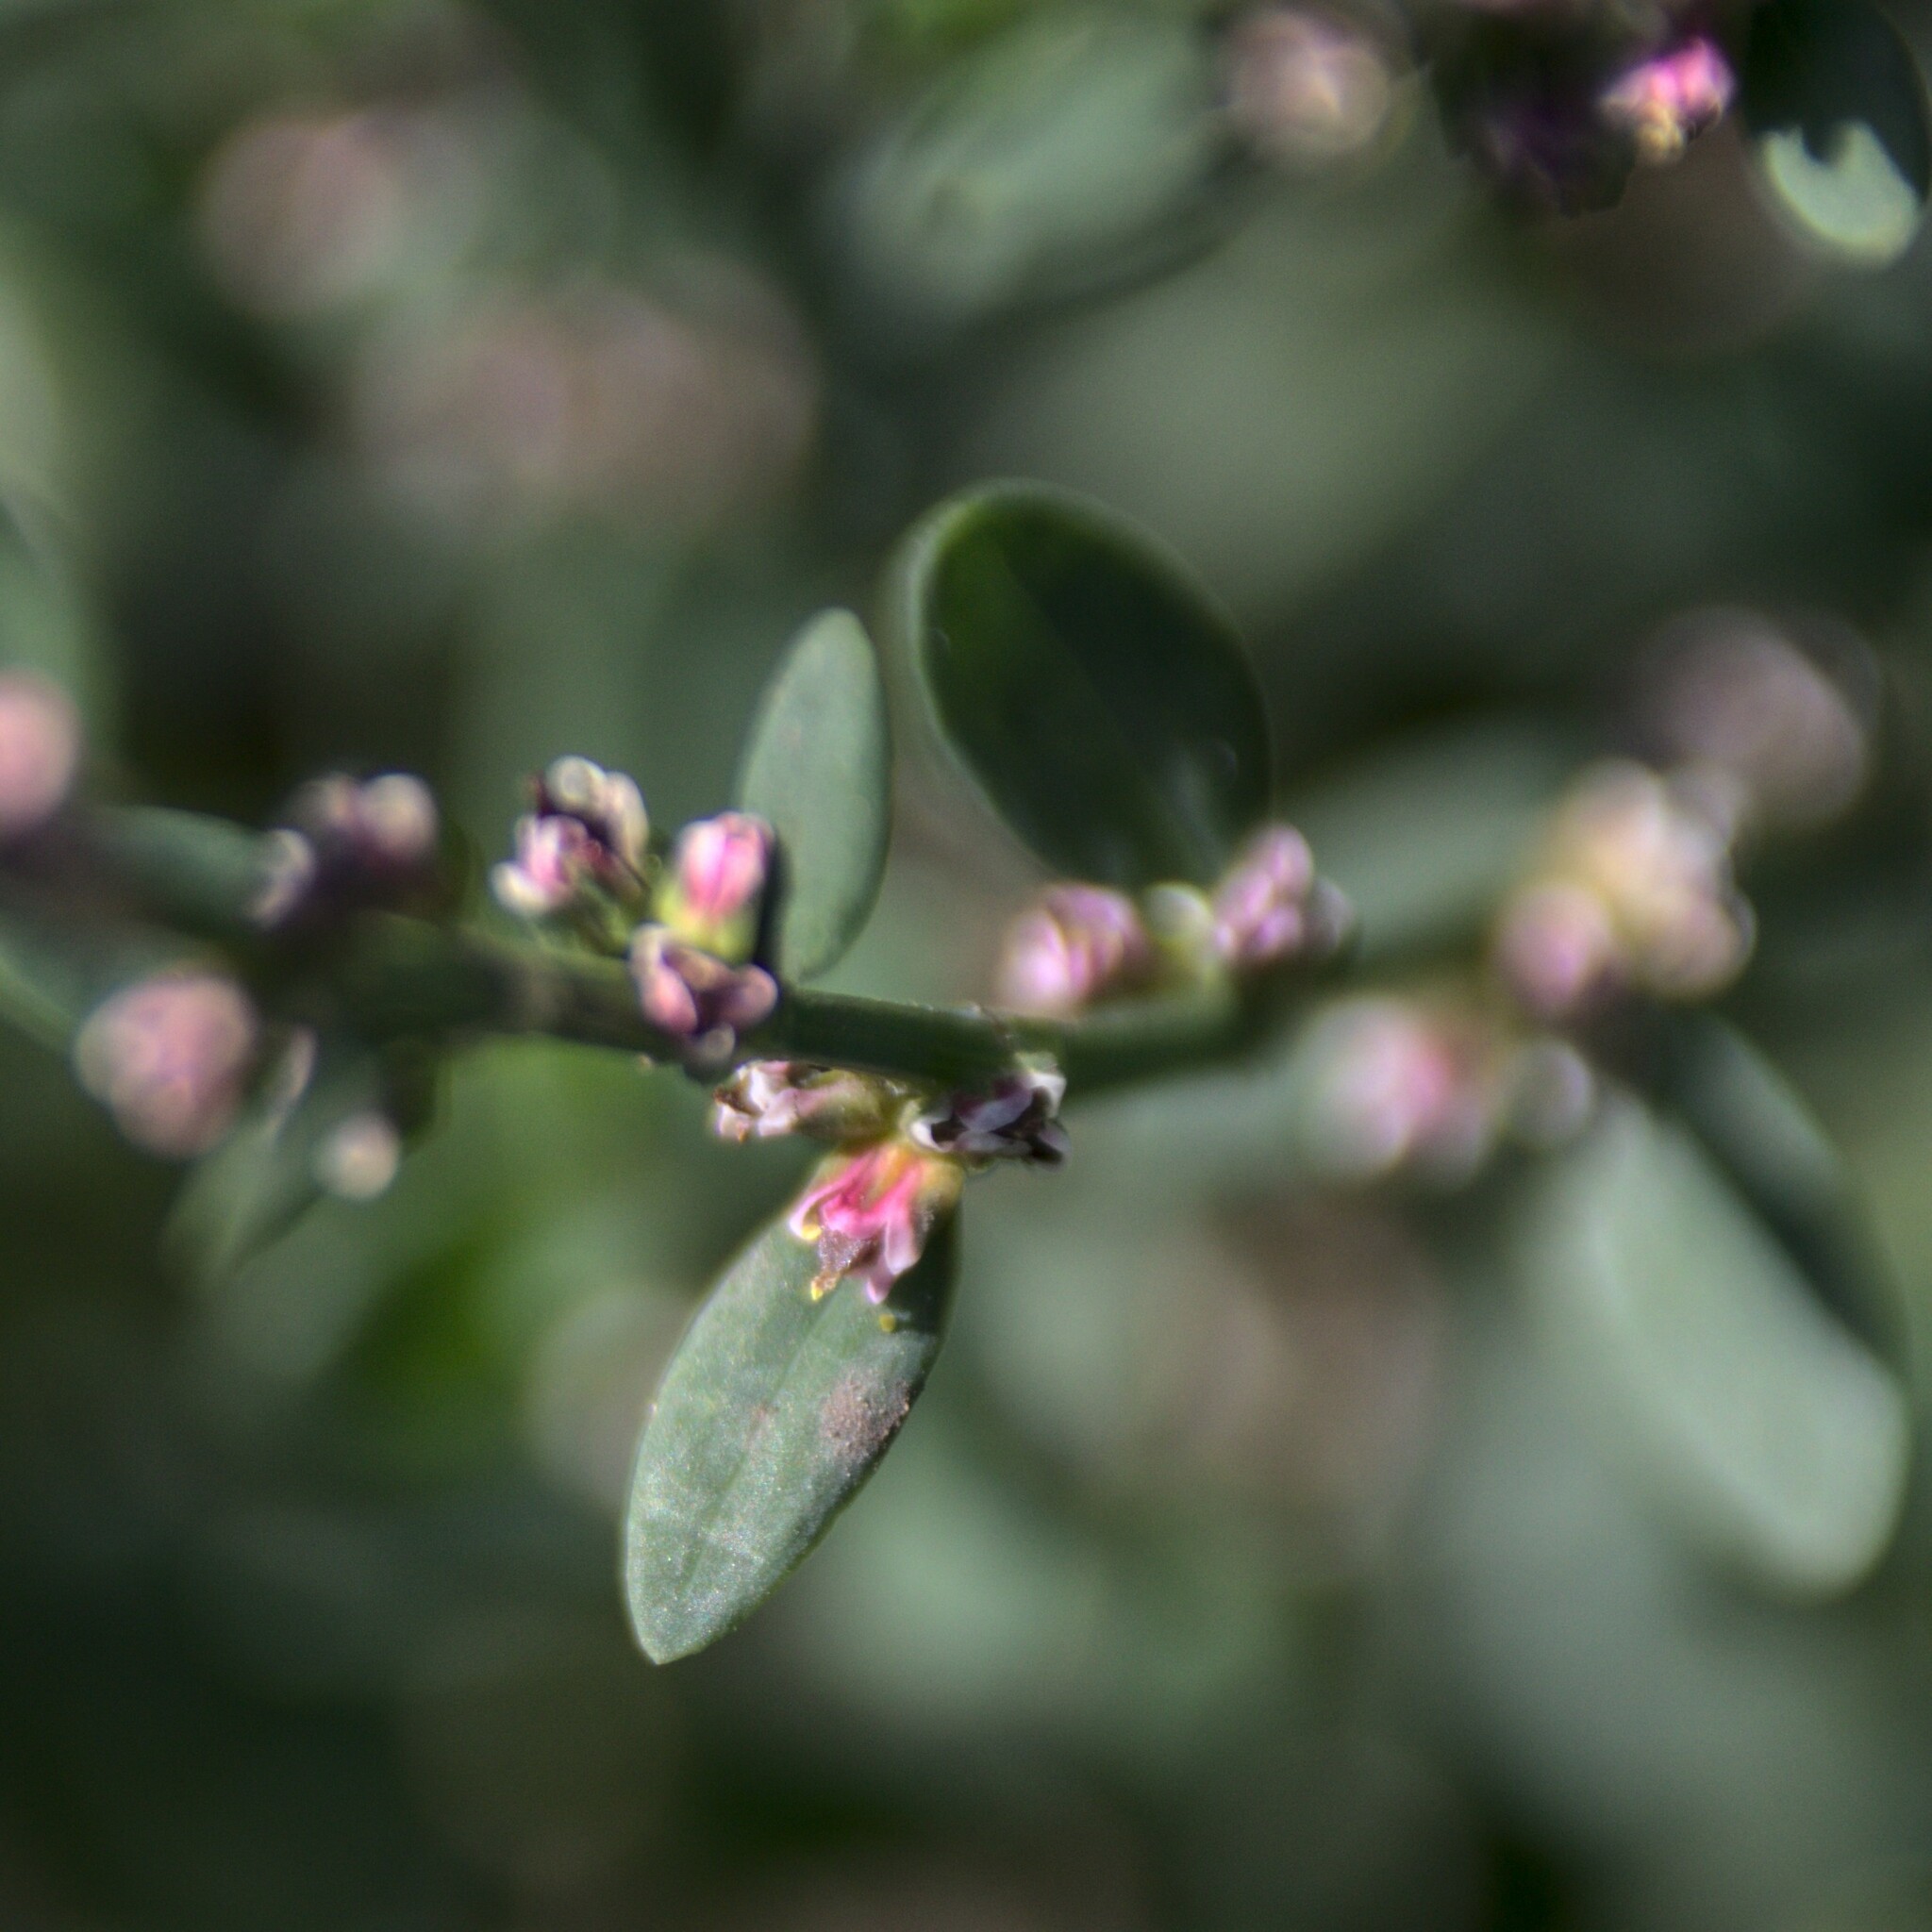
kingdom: Plantae
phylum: Tracheophyta
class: Magnoliopsida
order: Caryophyllales
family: Polygonaceae
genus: Polygonum
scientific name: Polygonum
